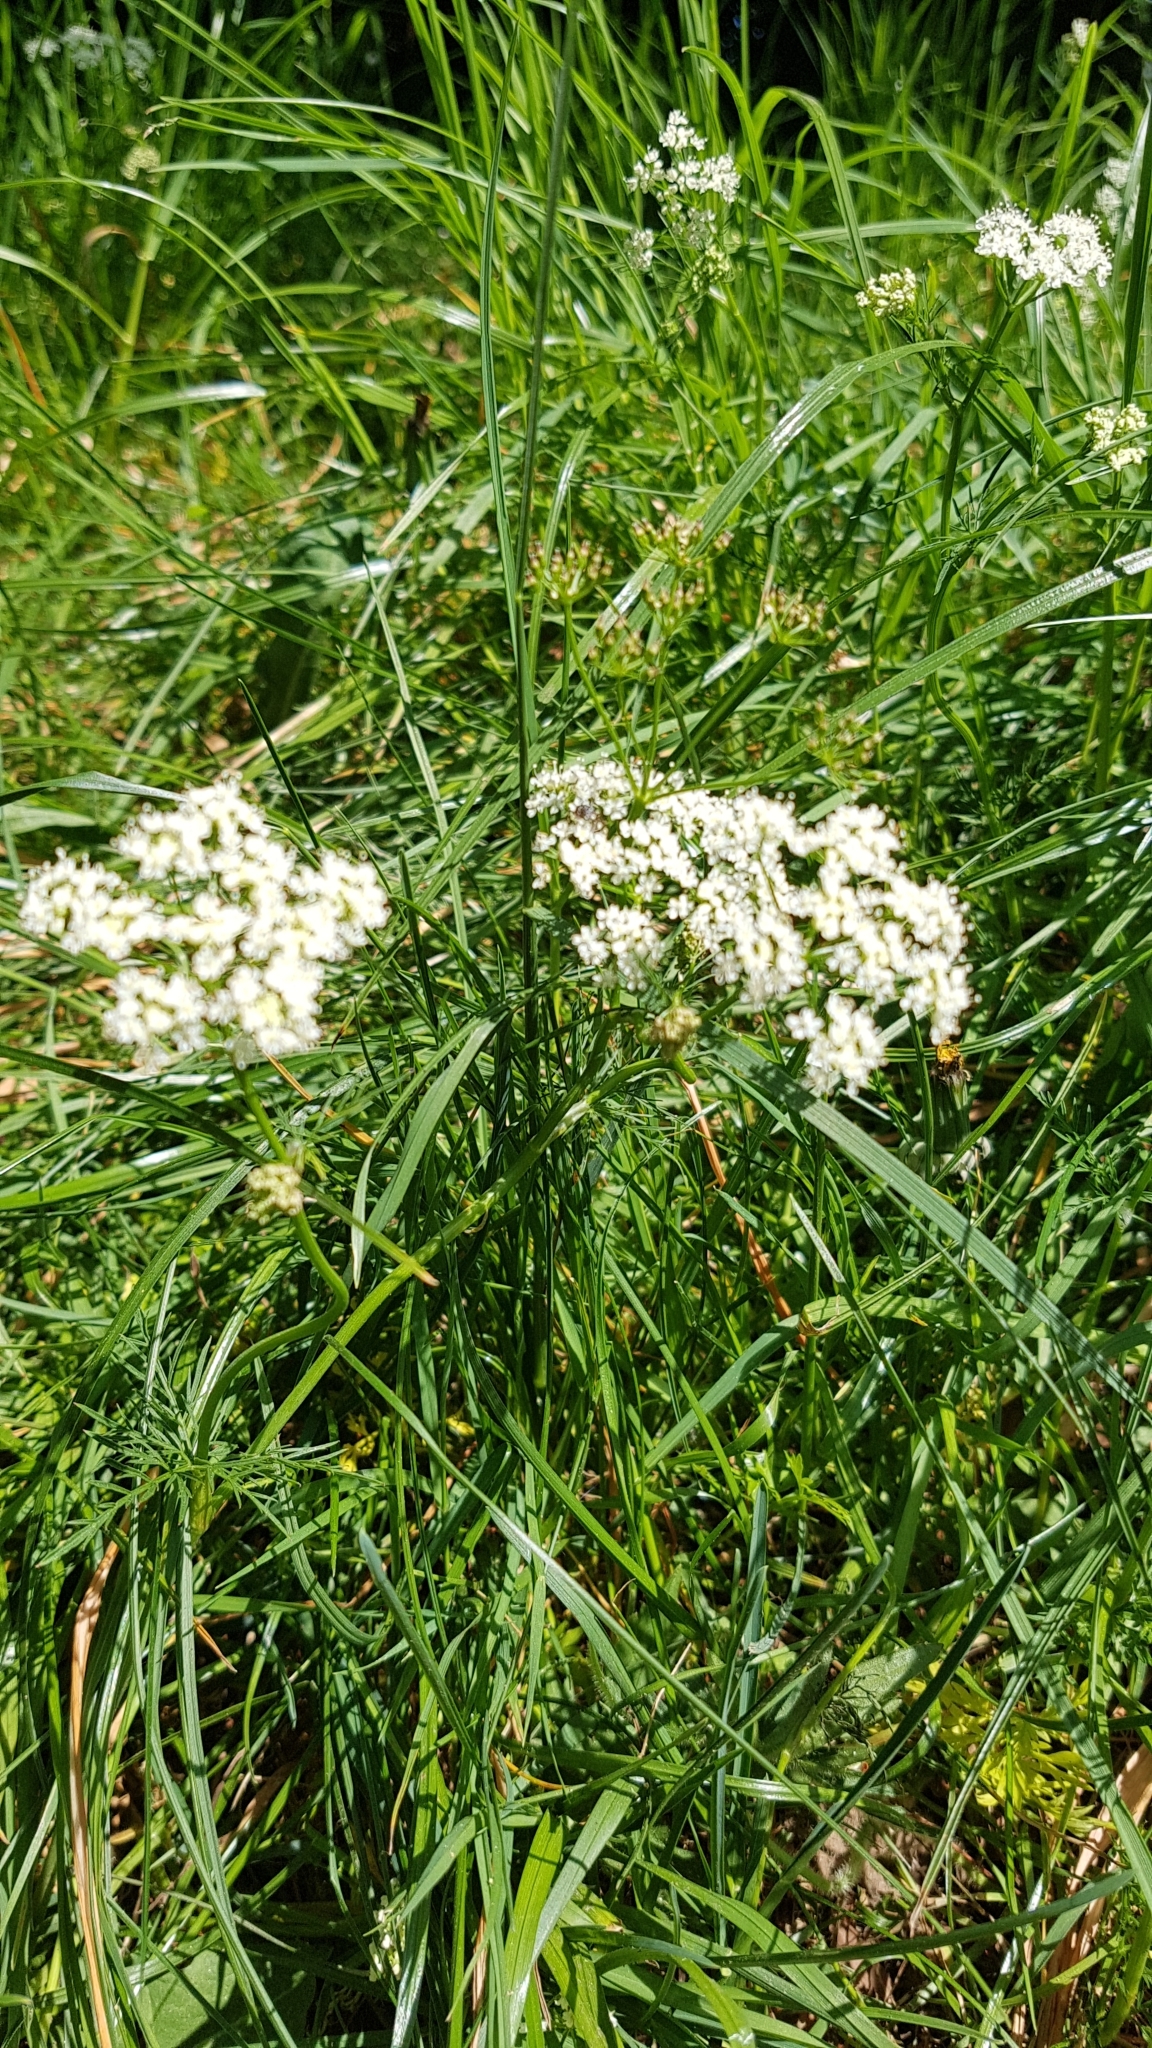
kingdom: Plantae
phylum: Tracheophyta
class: Magnoliopsida
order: Apiales
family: Apiaceae
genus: Conopodium
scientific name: Conopodium majus
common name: Pignut
